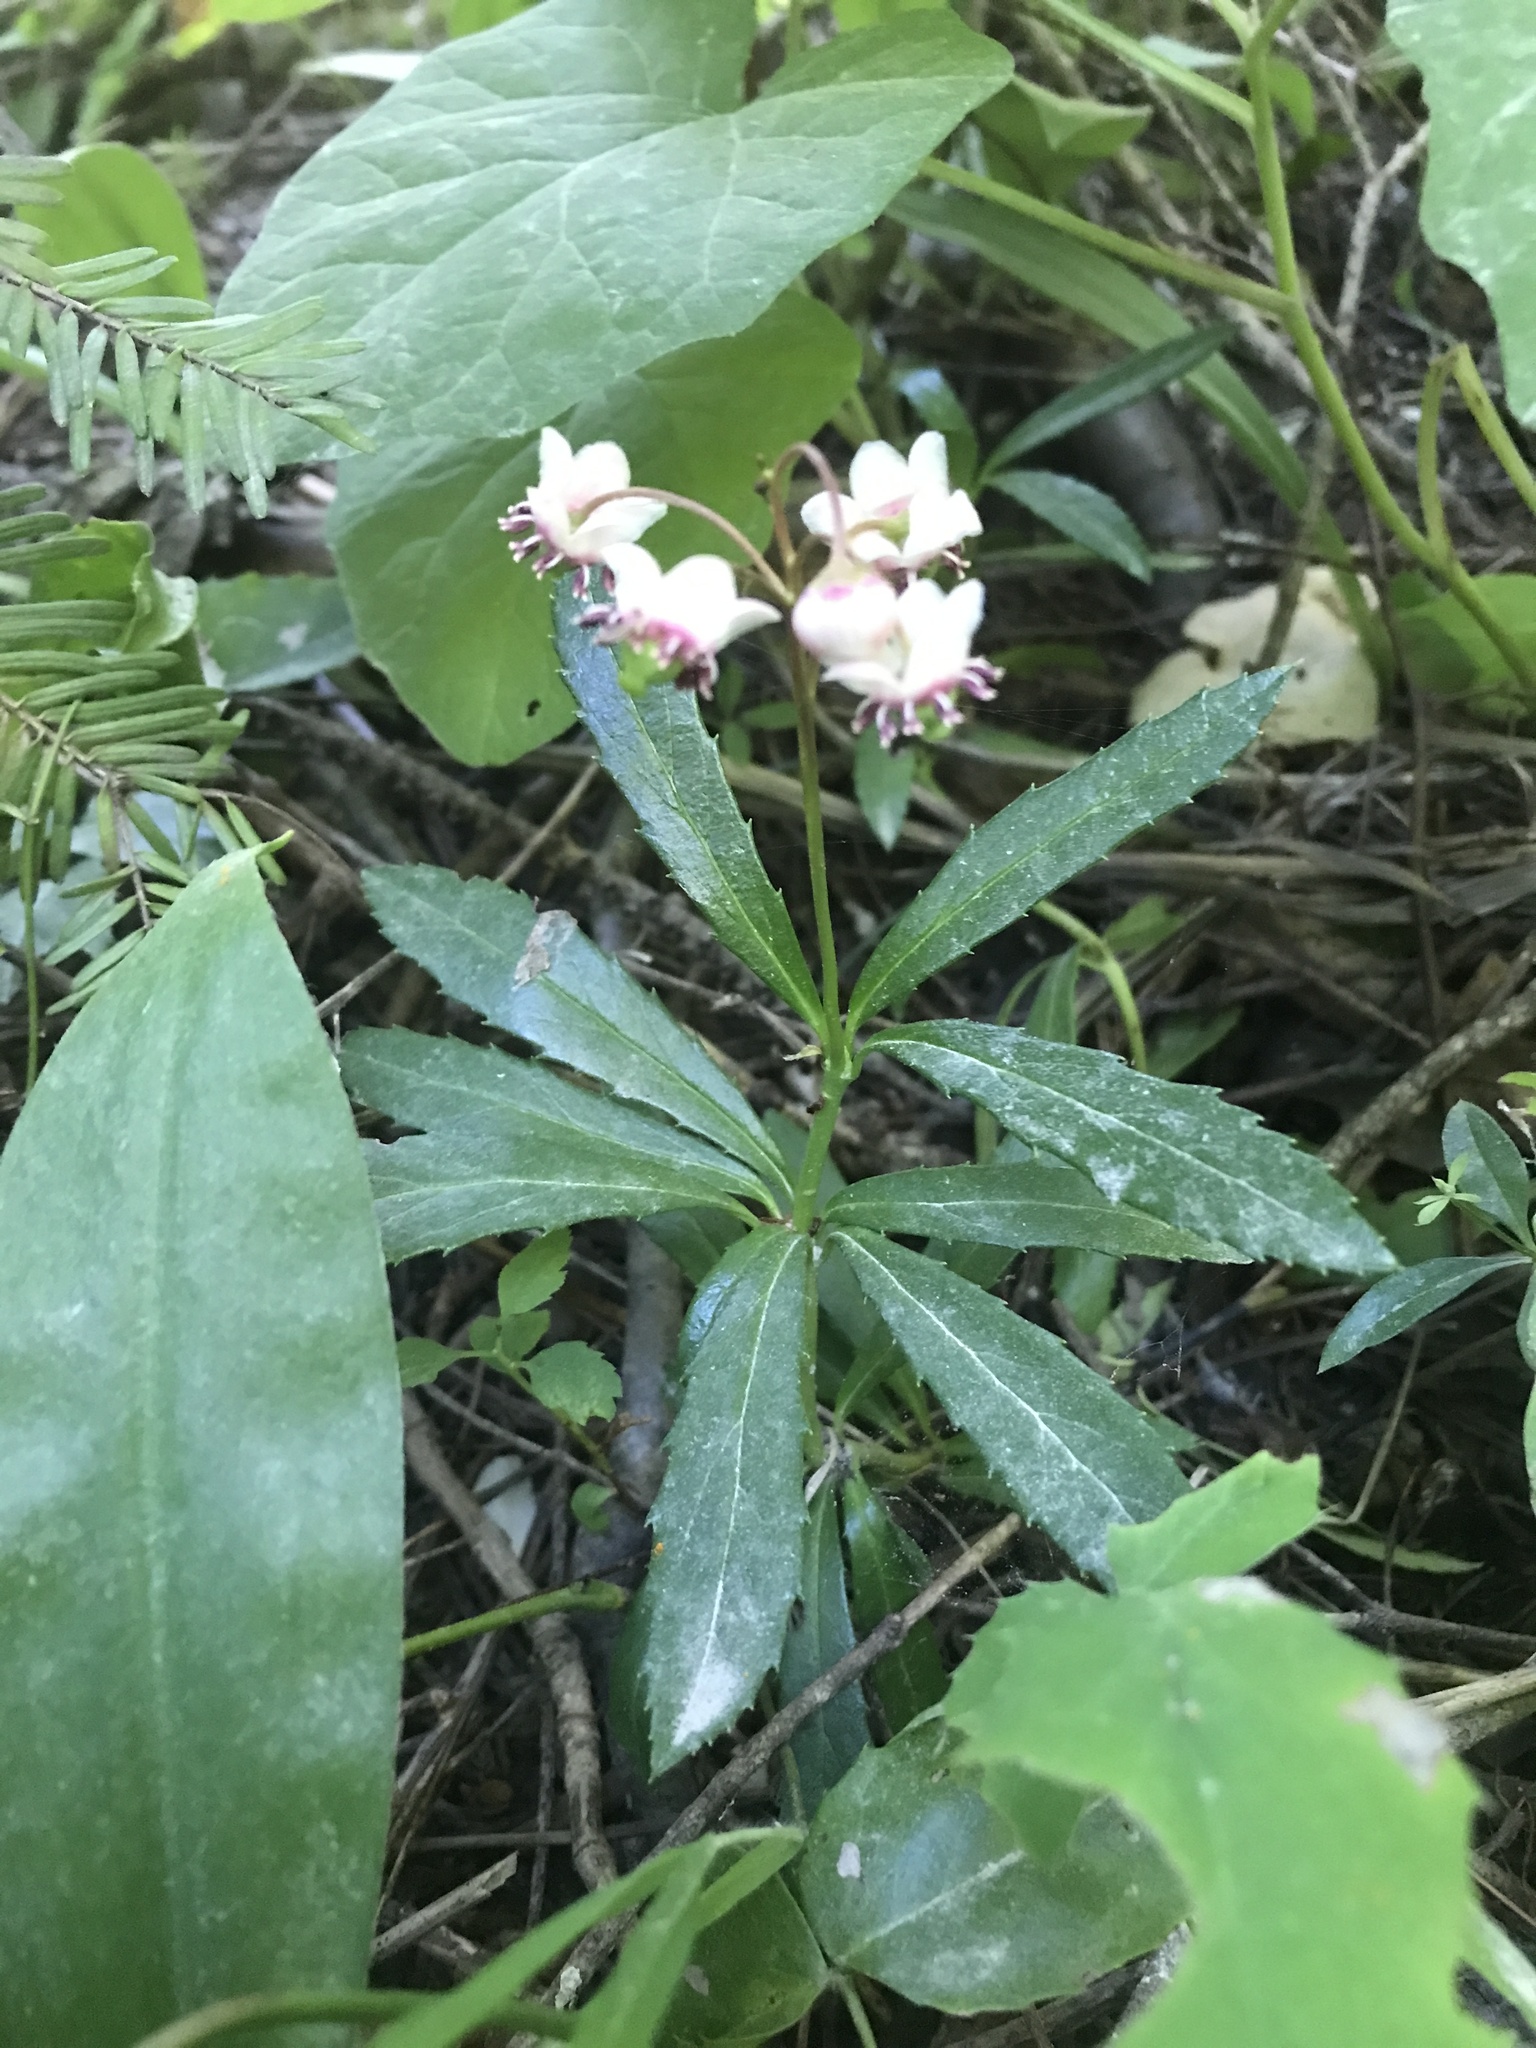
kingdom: Plantae
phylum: Tracheophyta
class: Magnoliopsida
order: Ericales
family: Ericaceae
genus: Chimaphila
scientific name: Chimaphila umbellata
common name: Pipsissewa
